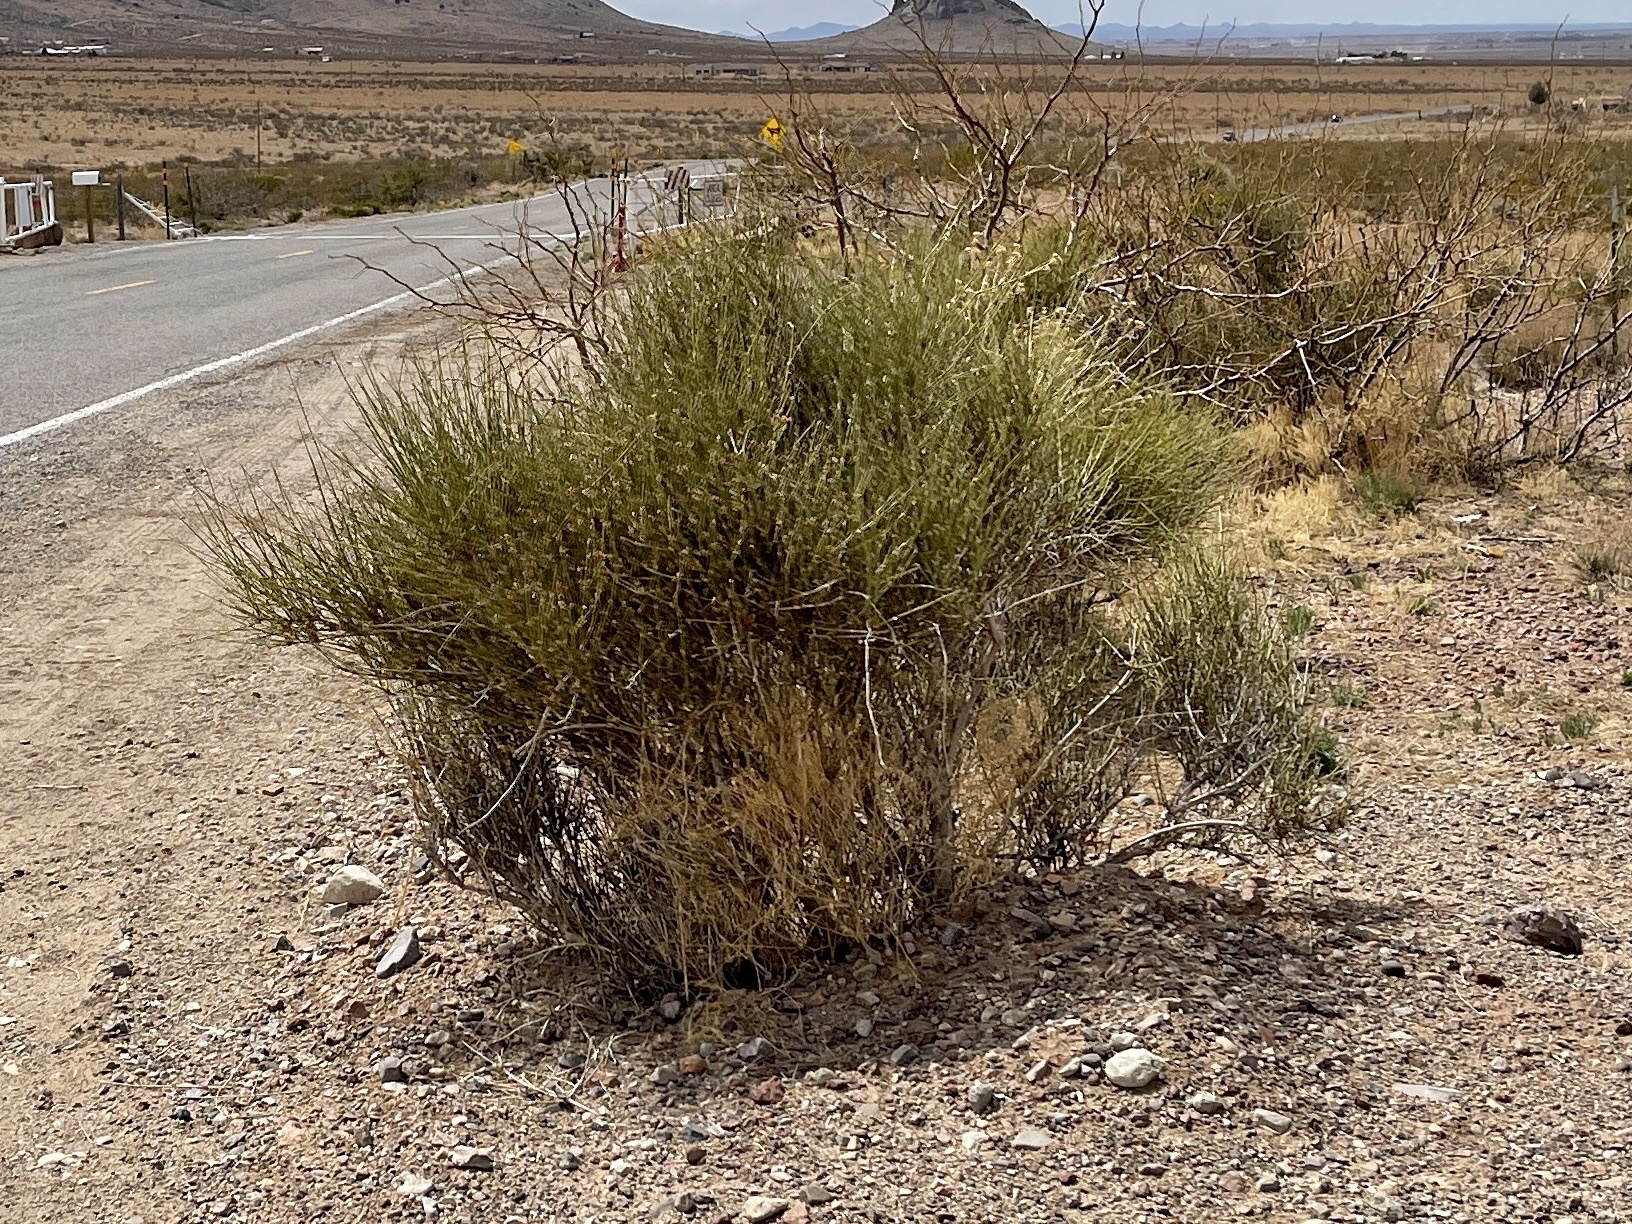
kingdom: Plantae
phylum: Tracheophyta
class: Gnetopsida
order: Ephedrales
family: Ephedraceae
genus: Ephedra
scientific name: Ephedra trifurca
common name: Mexican-tea
